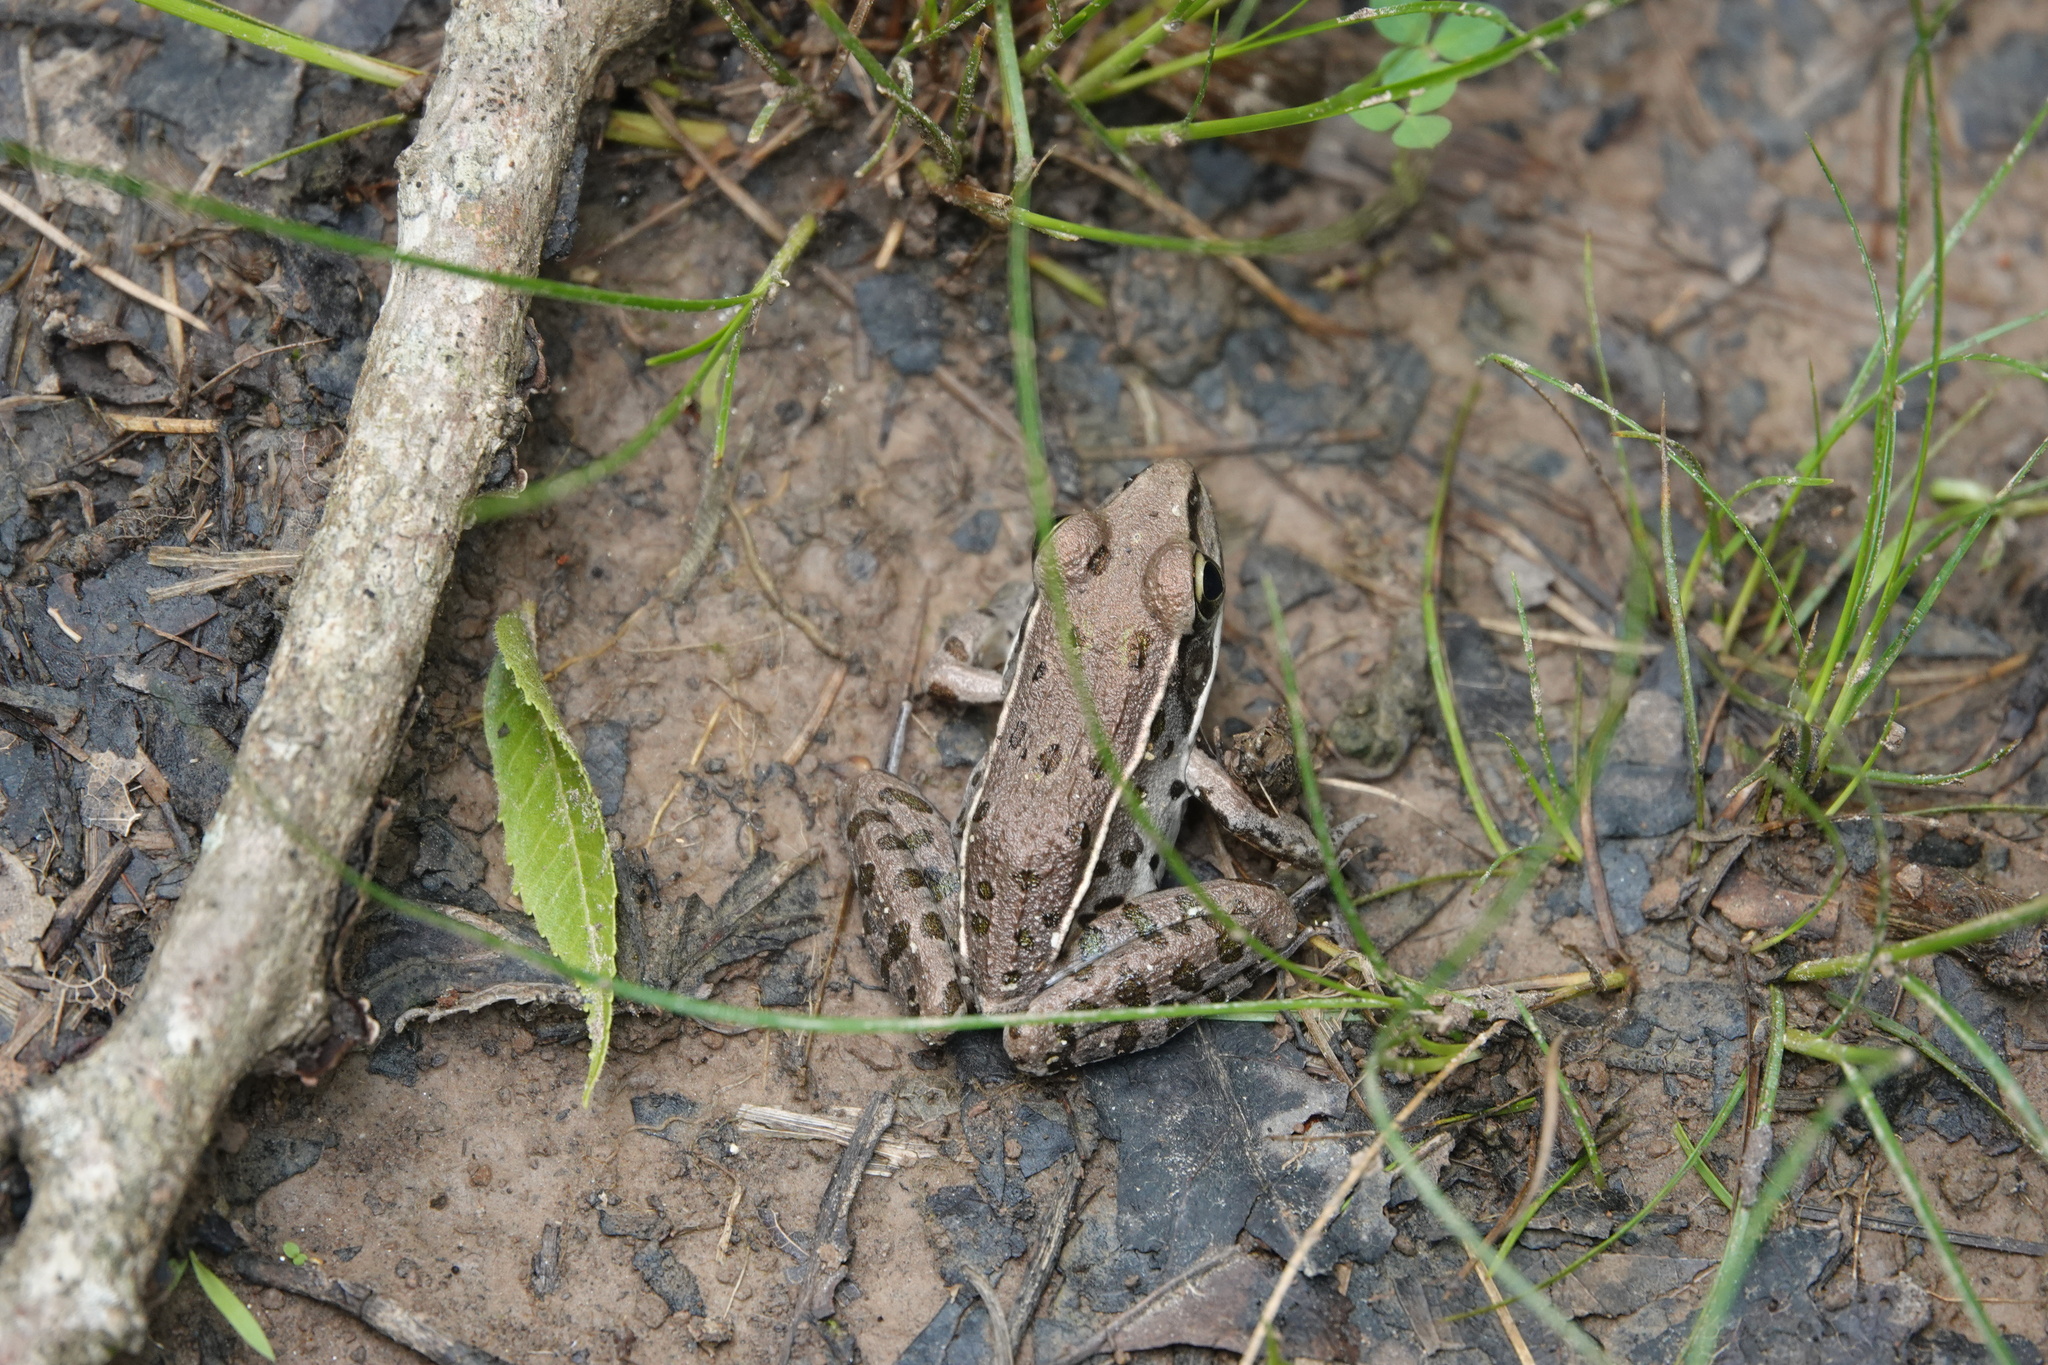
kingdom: Animalia
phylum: Chordata
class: Amphibia
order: Anura
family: Ranidae
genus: Lithobates
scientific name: Lithobates sphenocephalus
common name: Southern leopard frog
